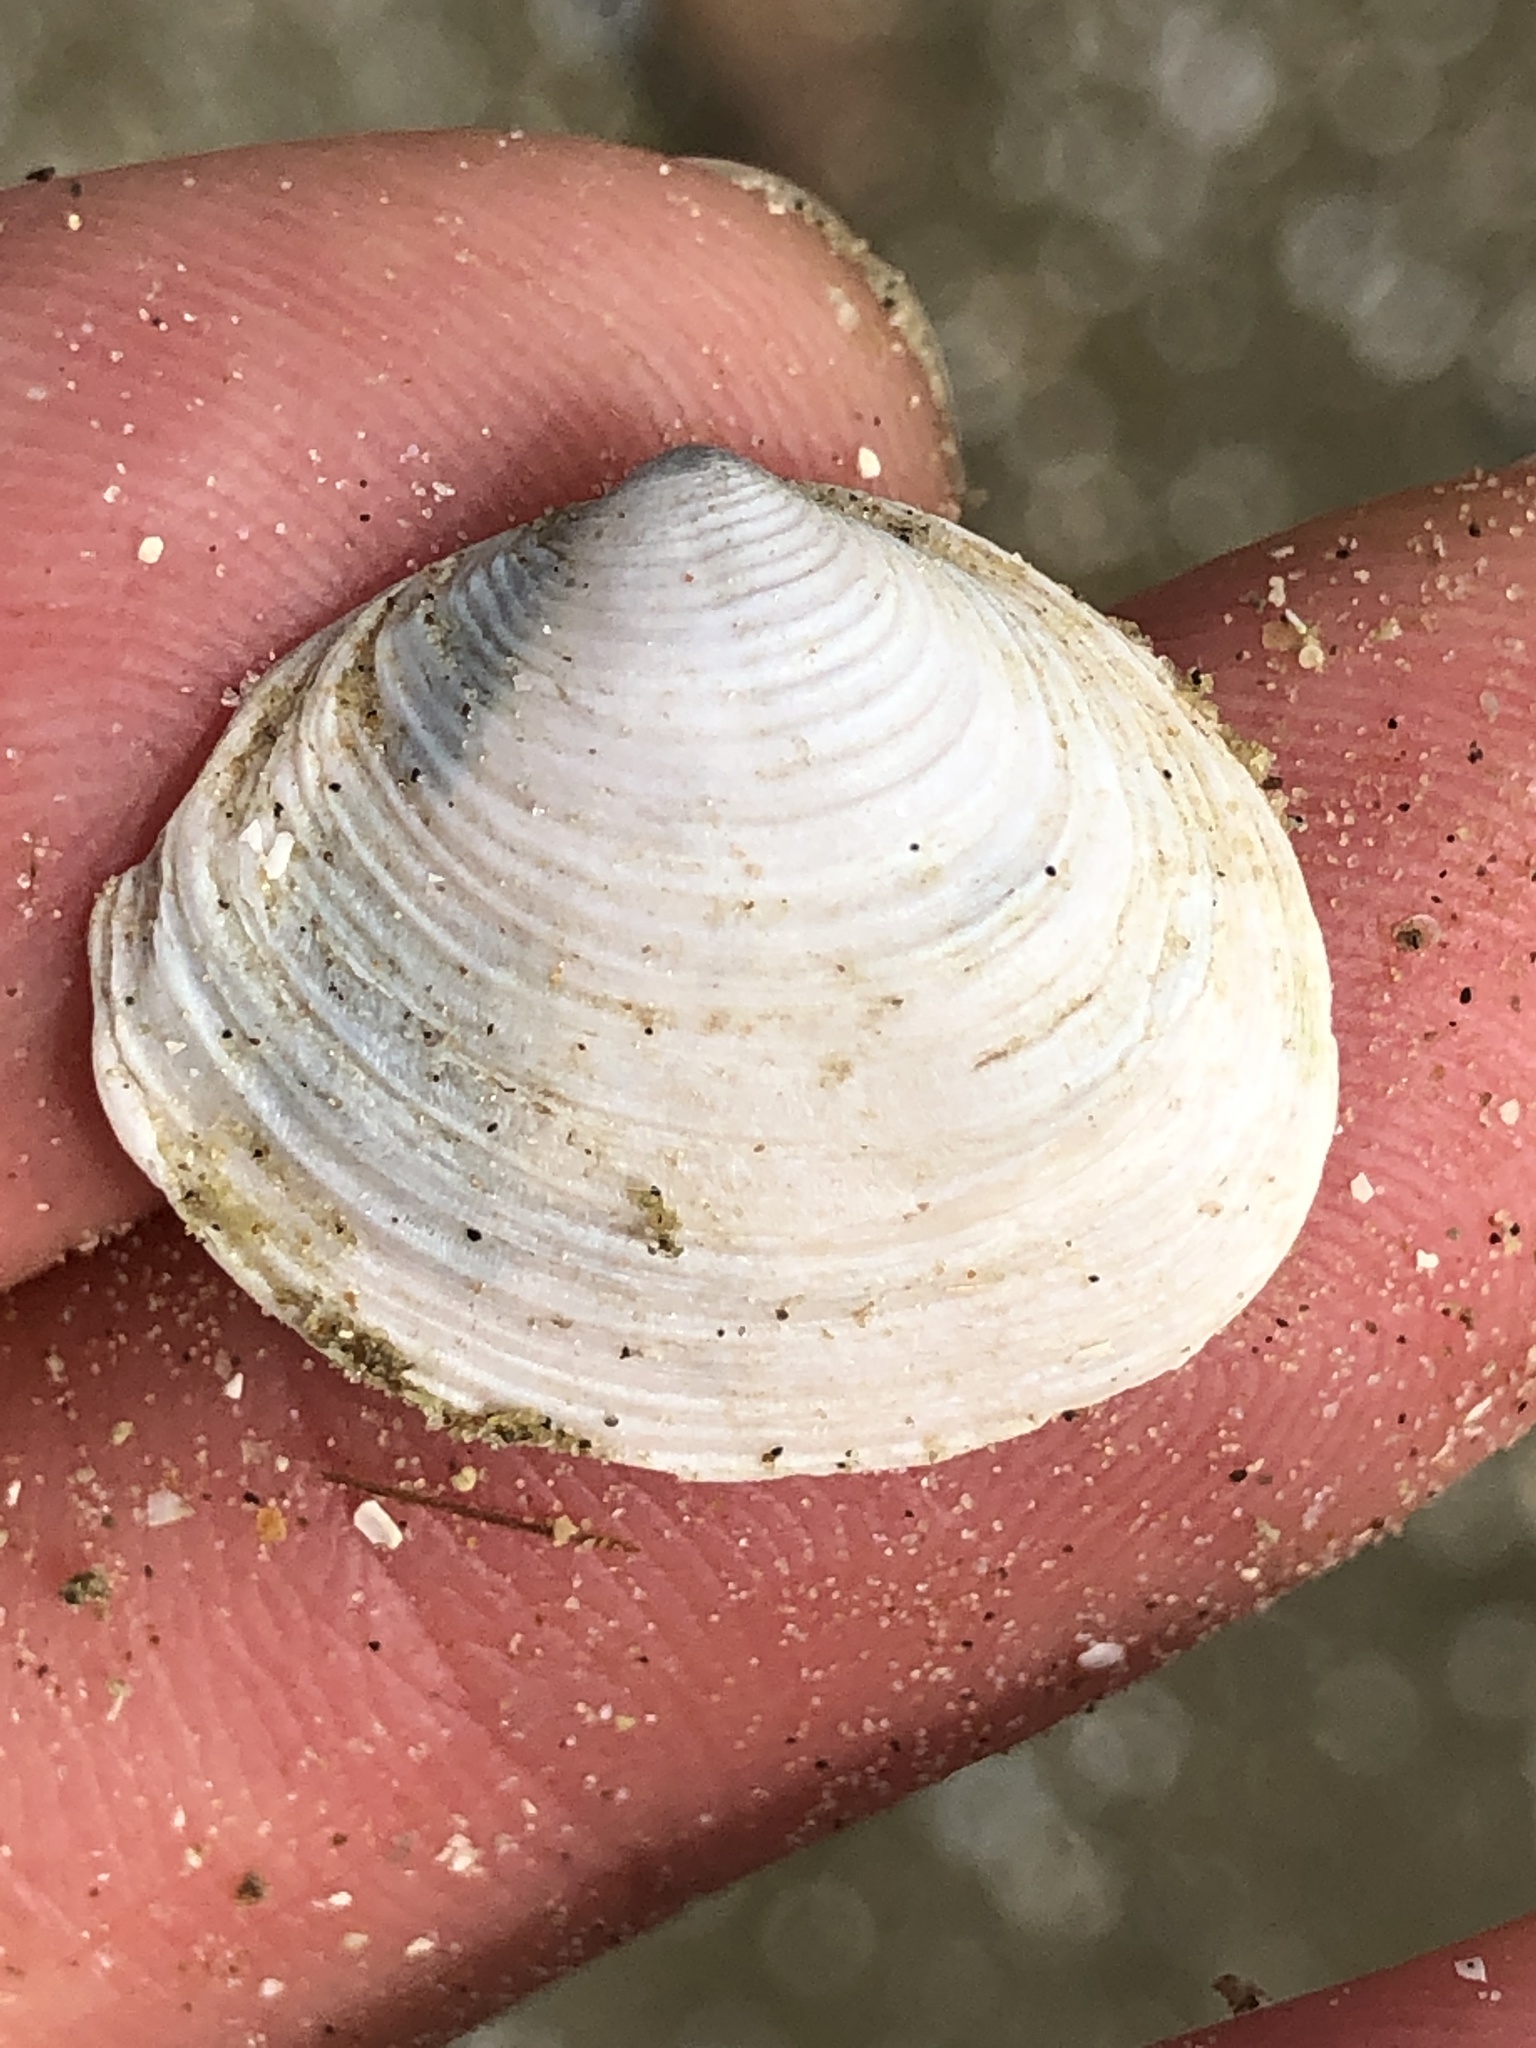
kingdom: Animalia
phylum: Mollusca
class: Bivalvia
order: Venerida
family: Anatinellidae
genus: Raeta
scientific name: Raeta plicatella
